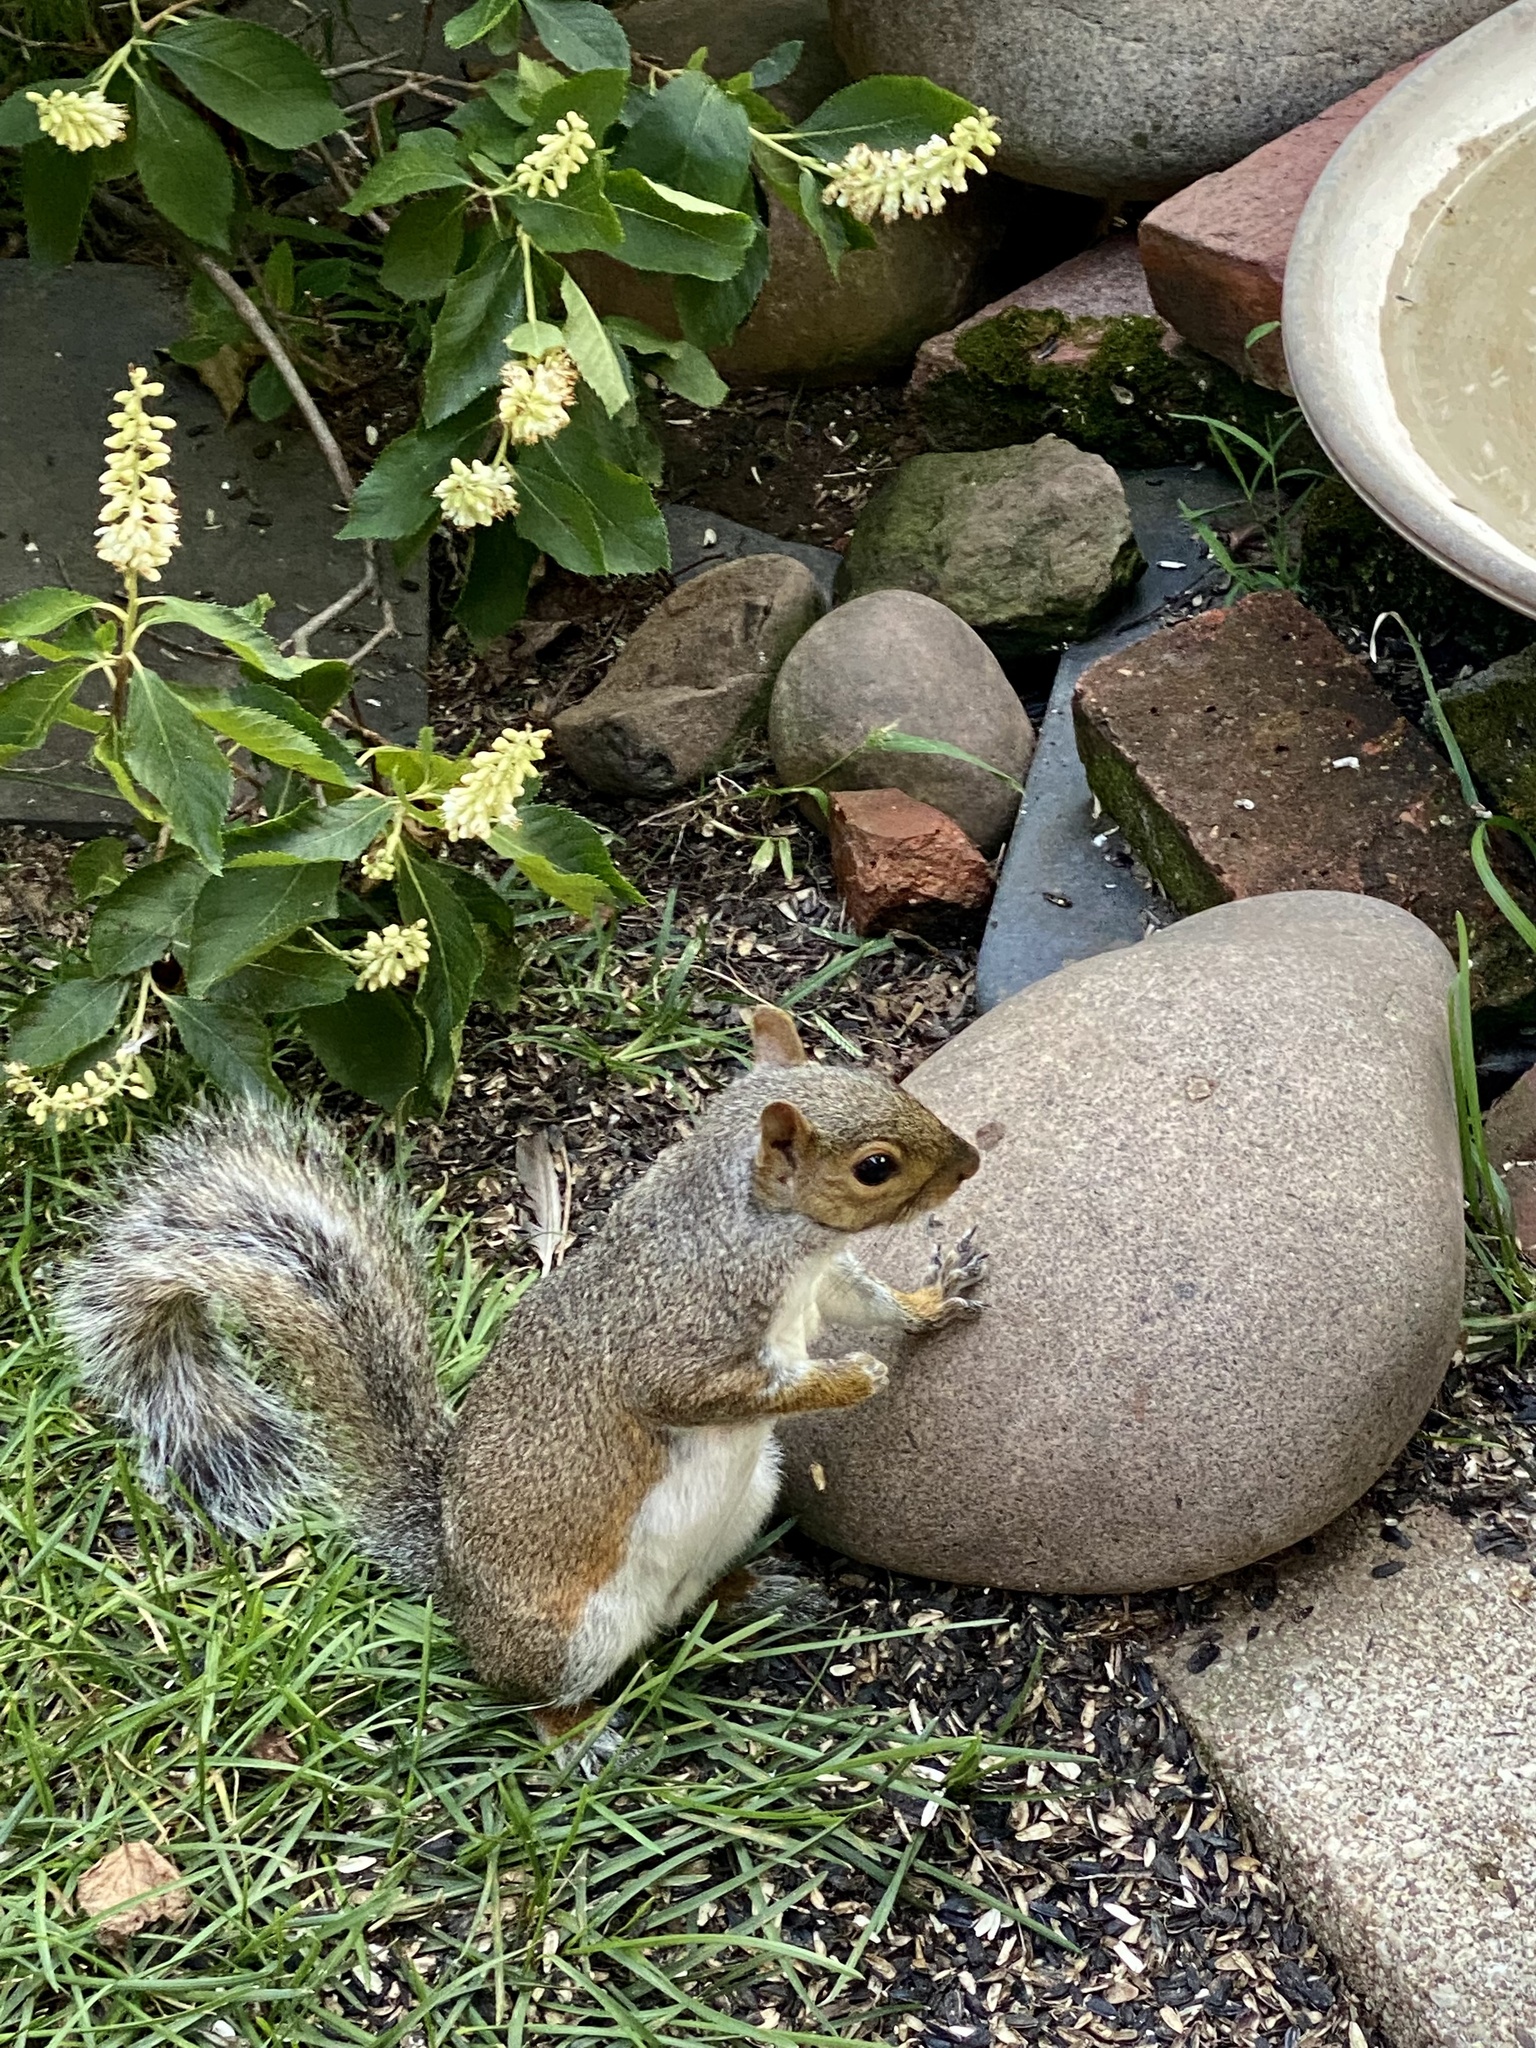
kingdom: Animalia
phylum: Chordata
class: Mammalia
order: Rodentia
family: Sciuridae
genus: Sciurus
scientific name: Sciurus carolinensis
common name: Eastern gray squirrel
